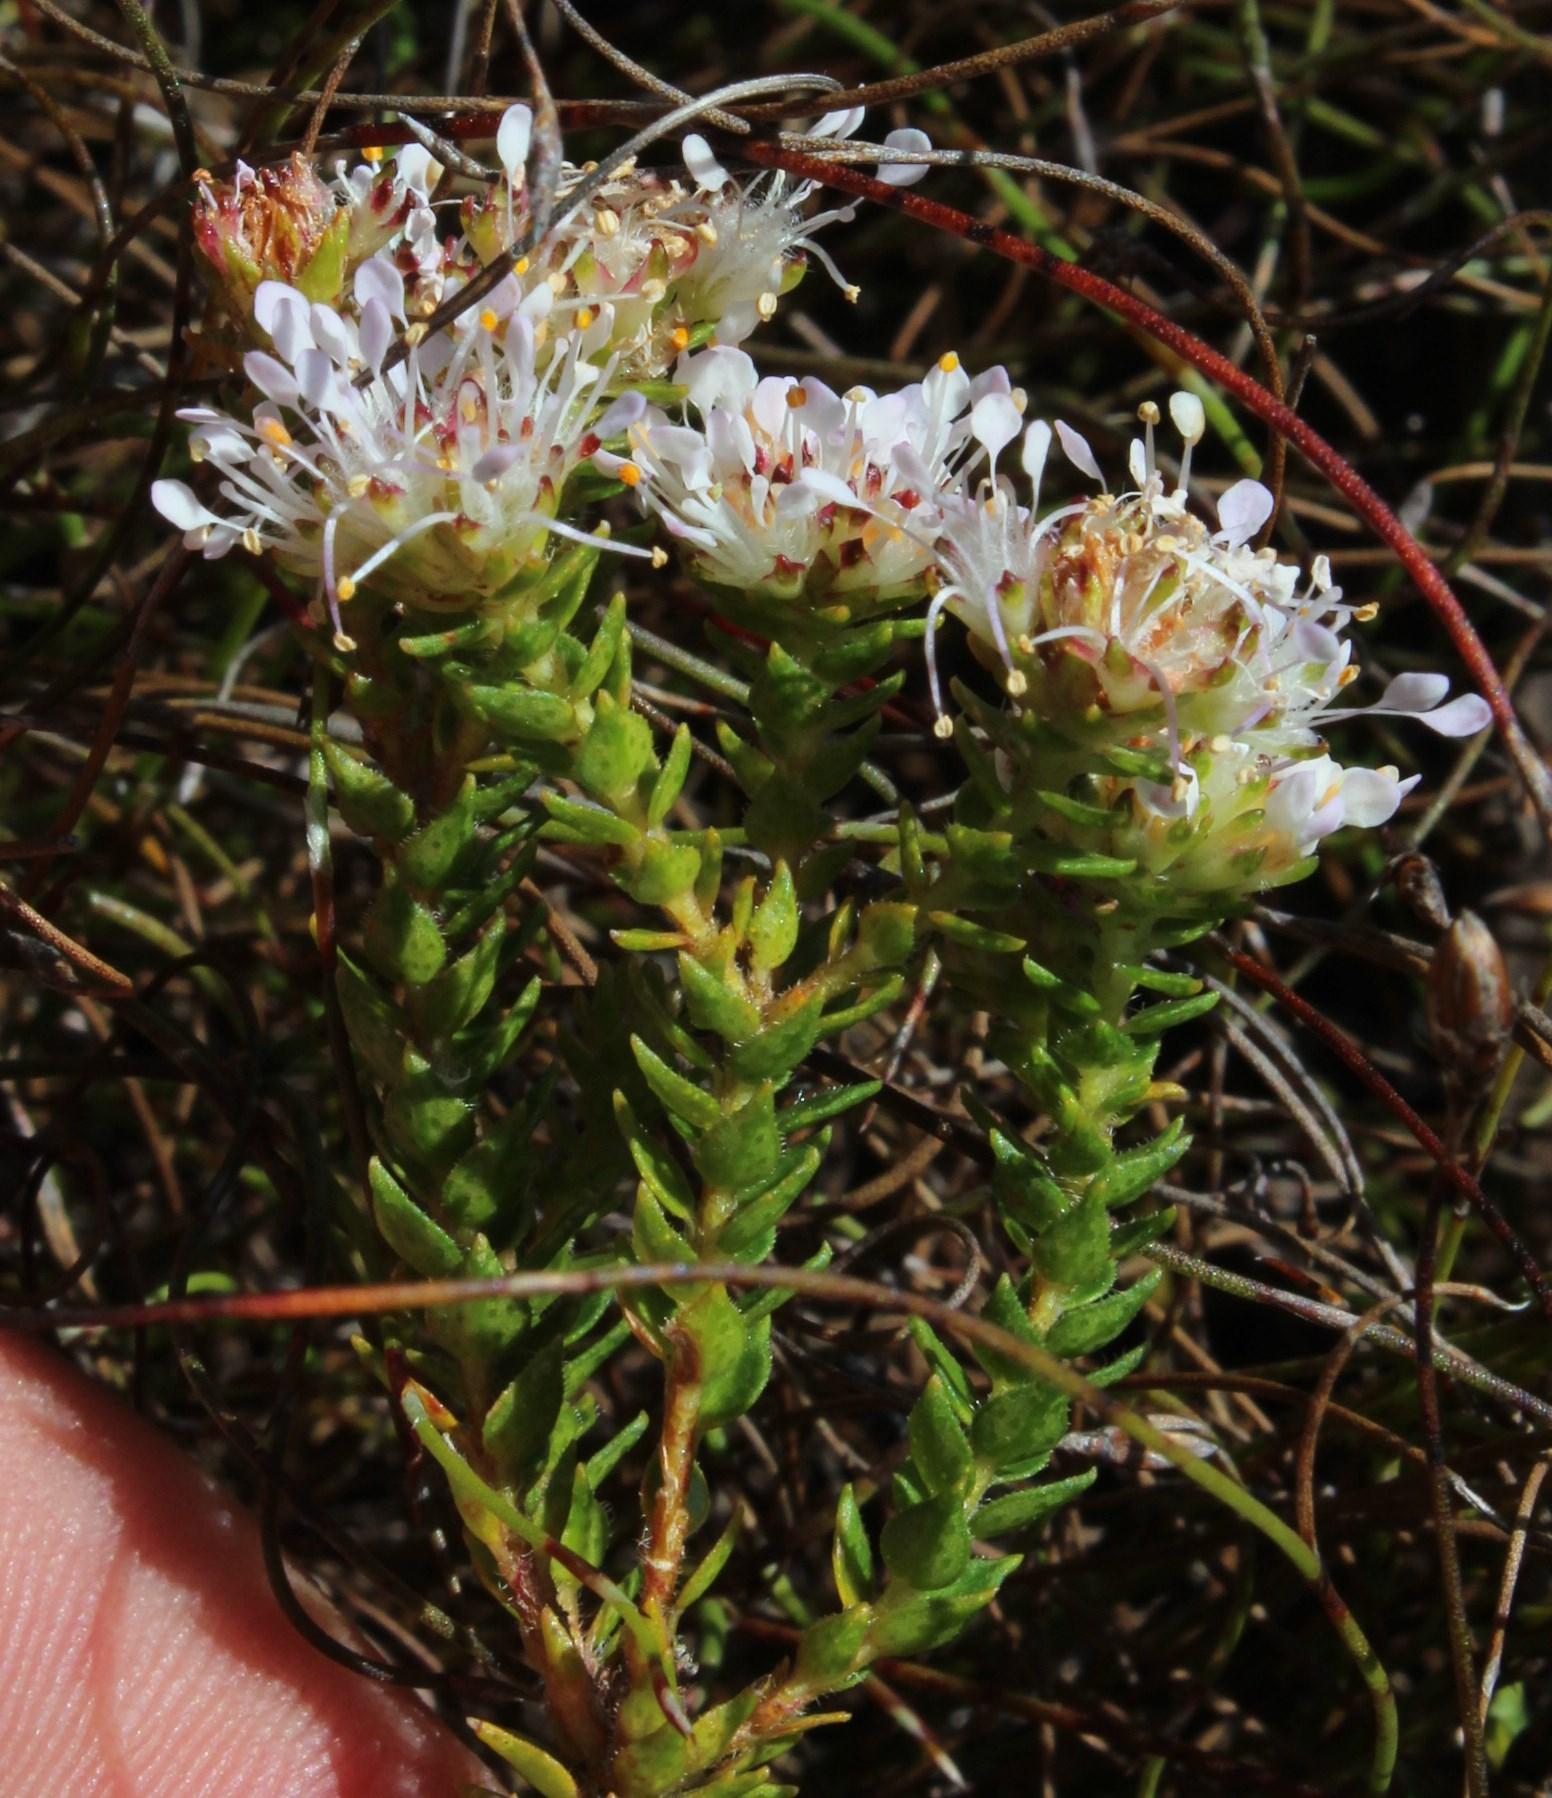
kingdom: Plantae
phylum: Tracheophyta
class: Magnoliopsida
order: Sapindales
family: Rutaceae
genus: Agathosma
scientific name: Agathosma imbricata
